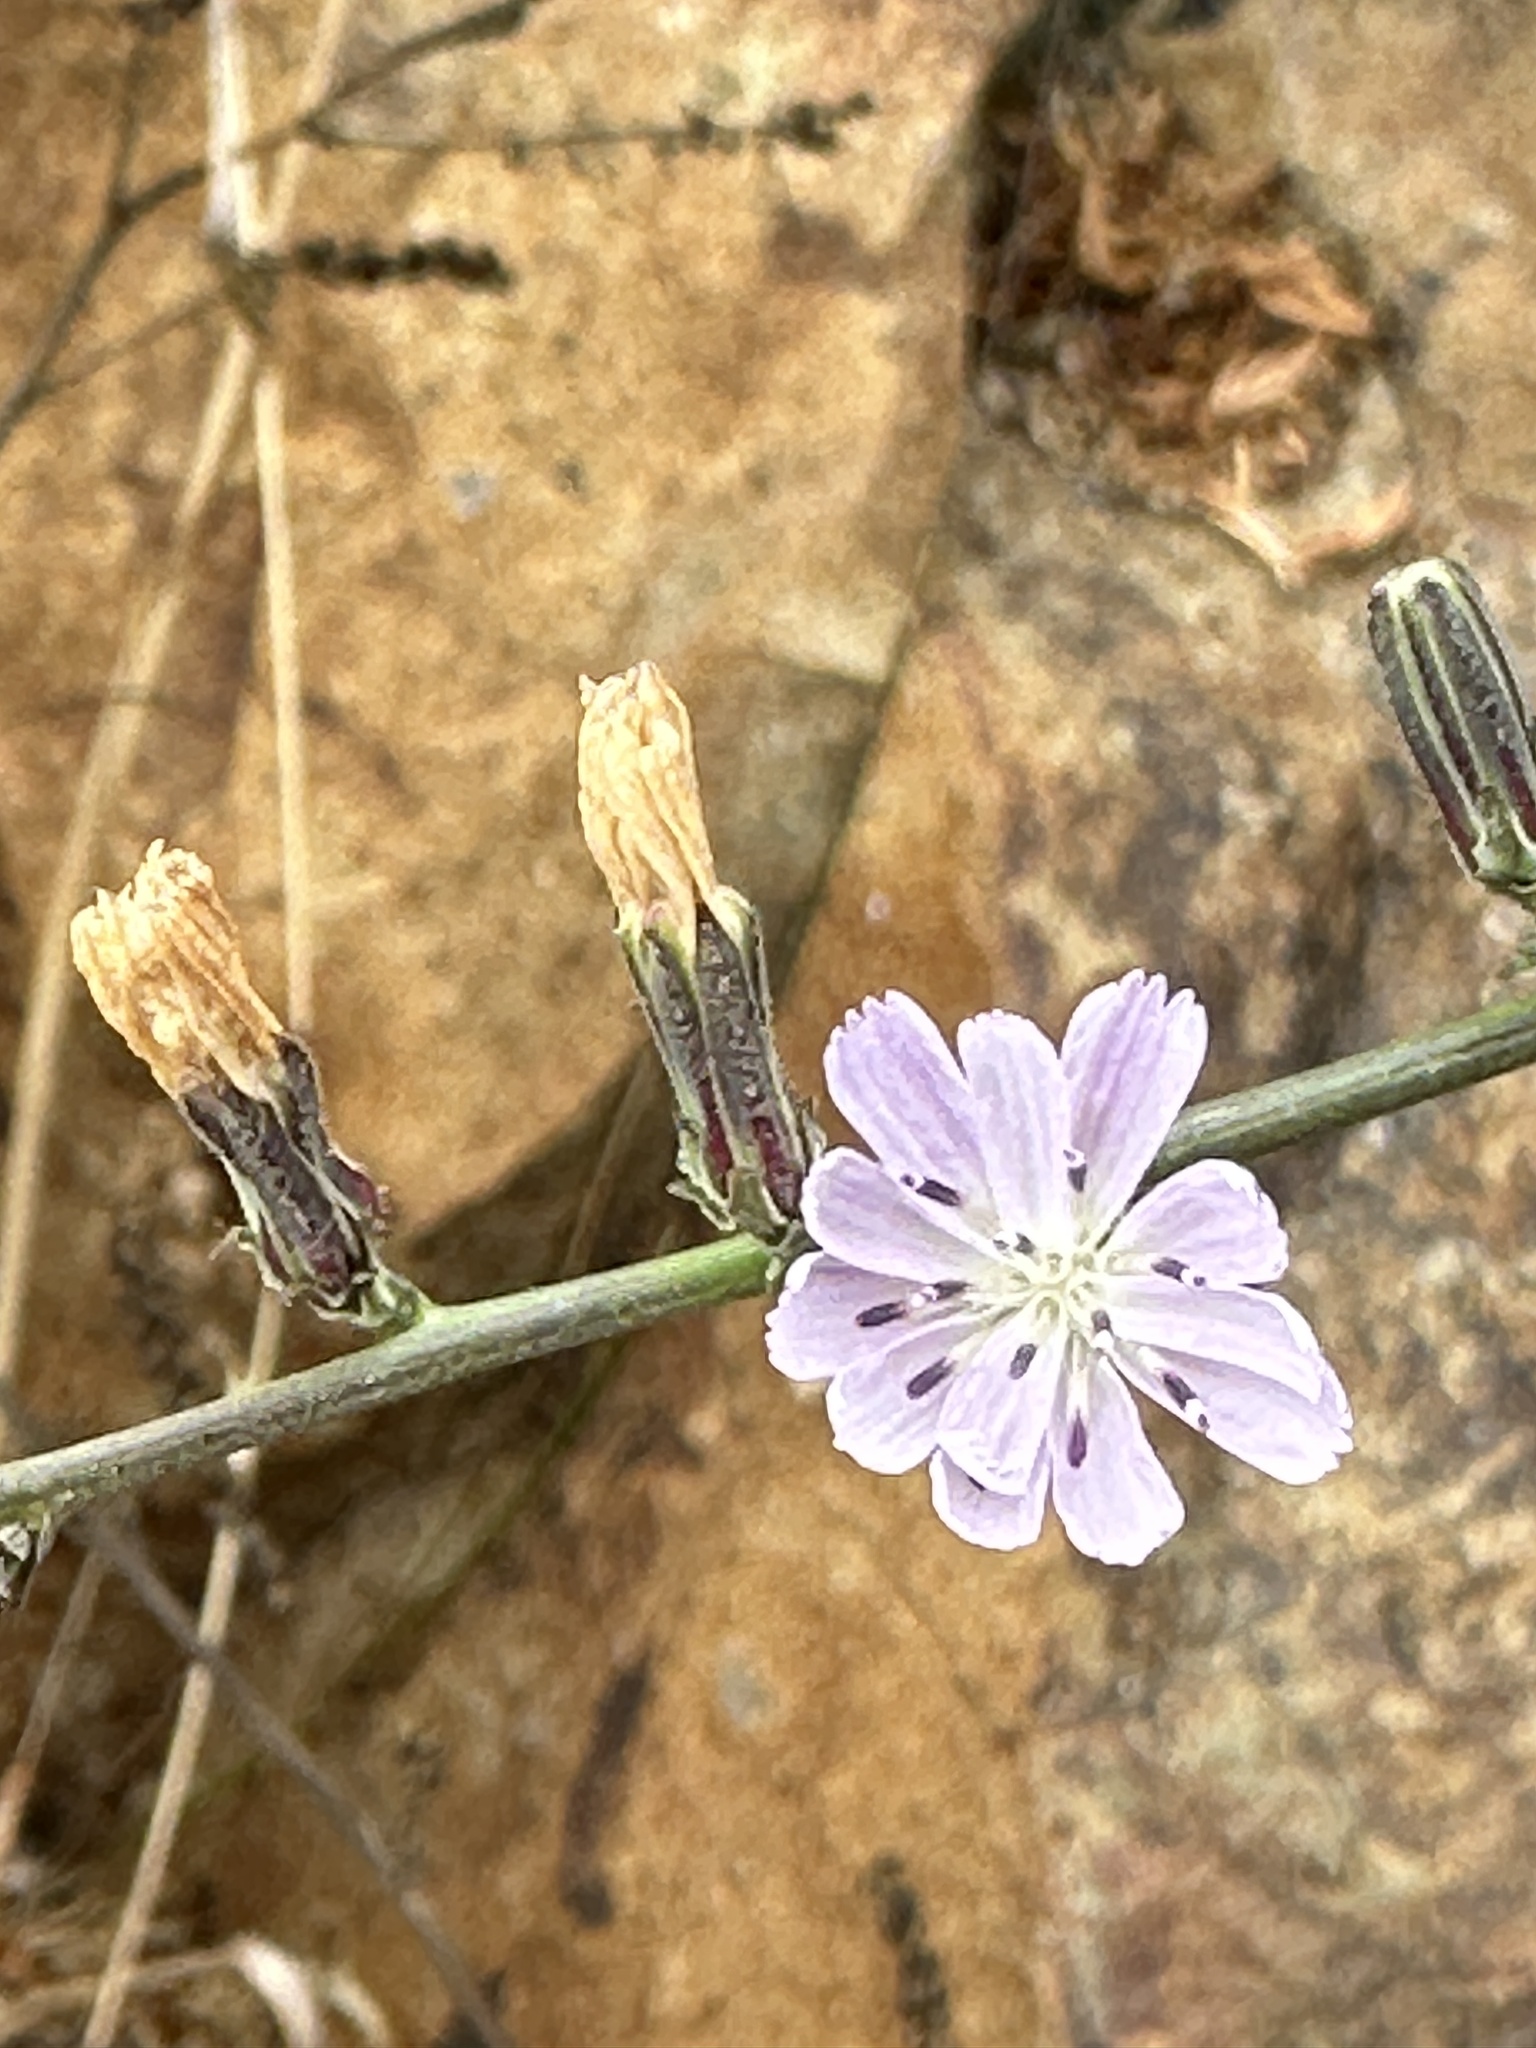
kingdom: Plantae
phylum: Tracheophyta
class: Magnoliopsida
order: Asterales
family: Asteraceae
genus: Stephanomeria
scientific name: Stephanomeria diegensis
